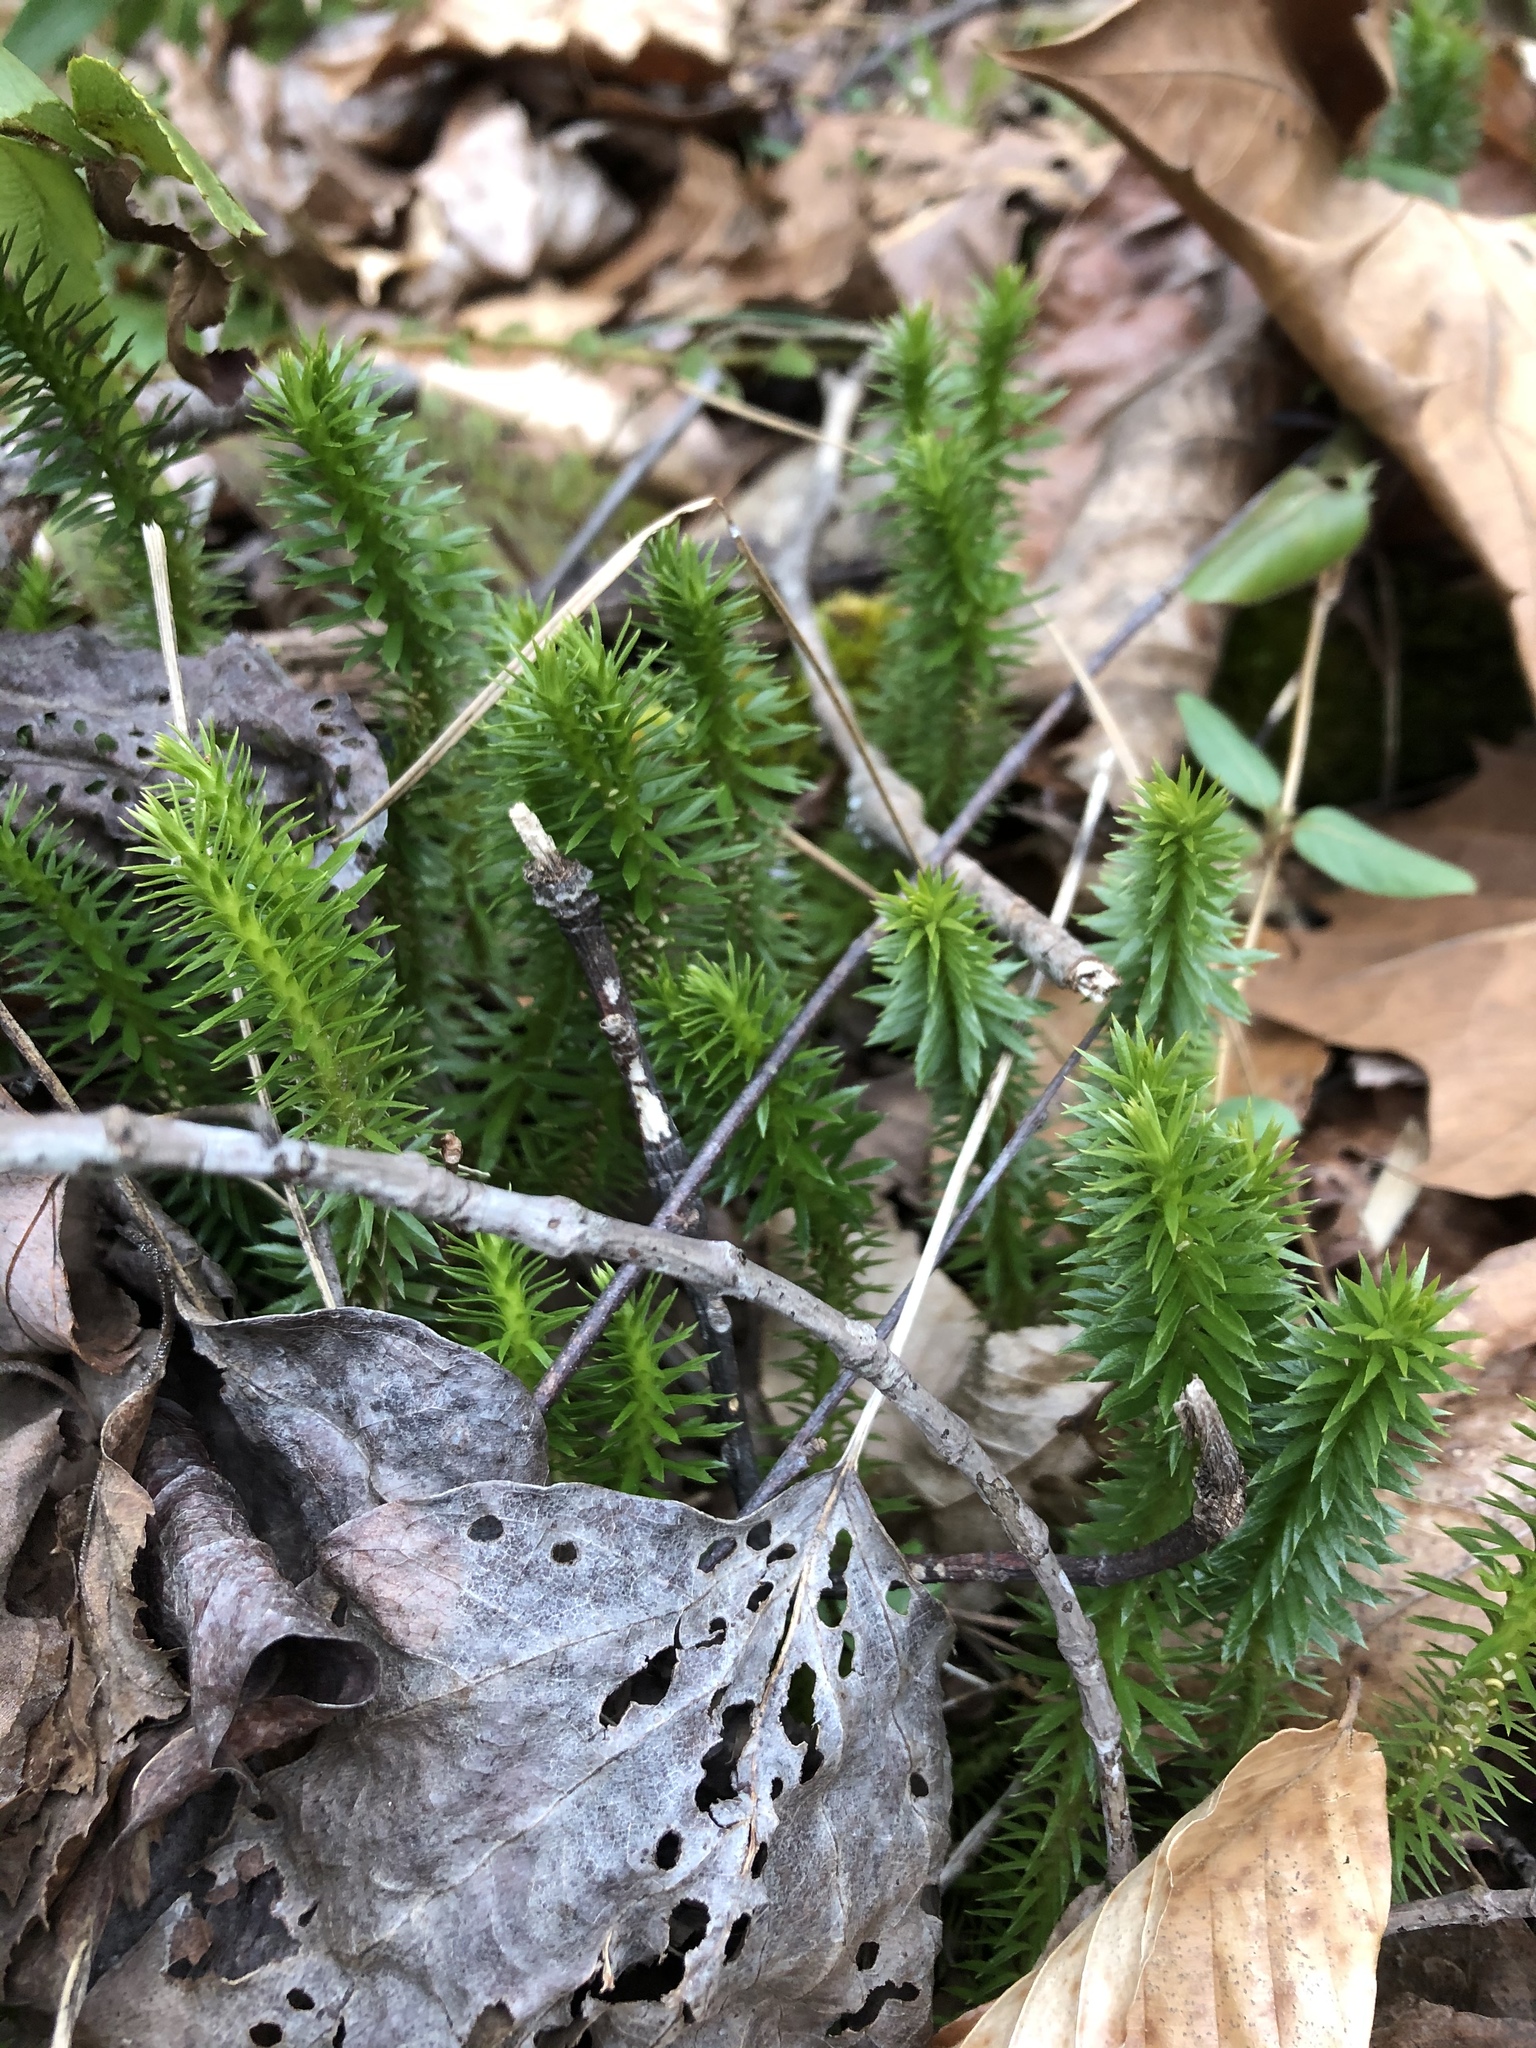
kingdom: Plantae
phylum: Tracheophyta
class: Lycopodiopsida
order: Lycopodiales
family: Lycopodiaceae
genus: Huperzia
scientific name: Huperzia lucidula
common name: Shining clubmoss
